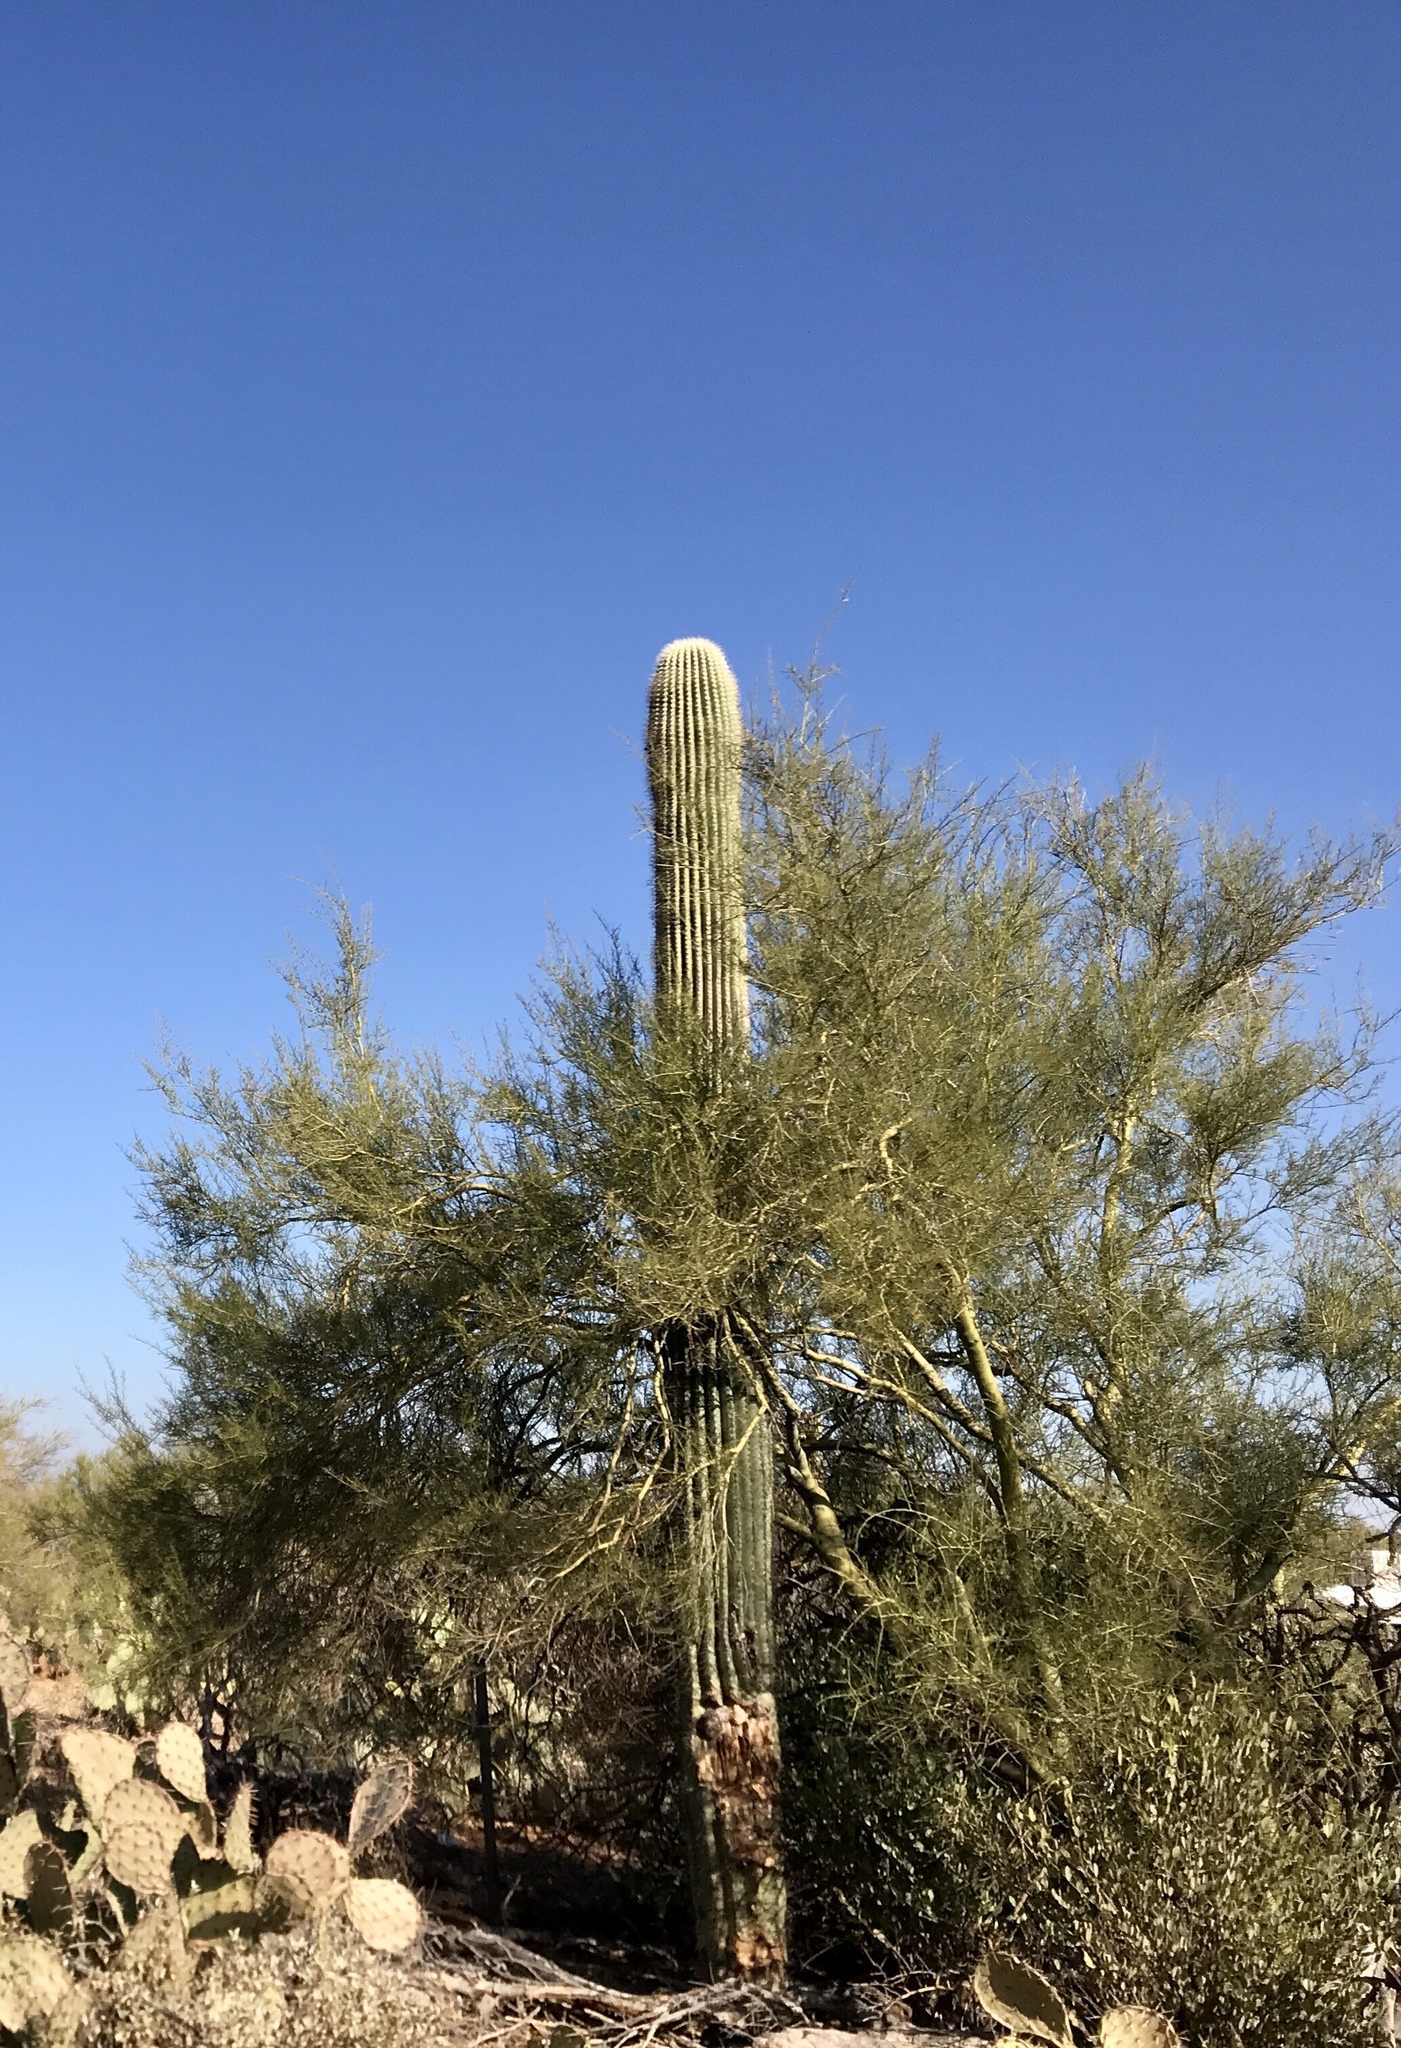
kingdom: Plantae
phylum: Tracheophyta
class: Magnoliopsida
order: Fabales
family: Fabaceae
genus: Parkinsonia
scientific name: Parkinsonia microphylla
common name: Yellow paloverde
